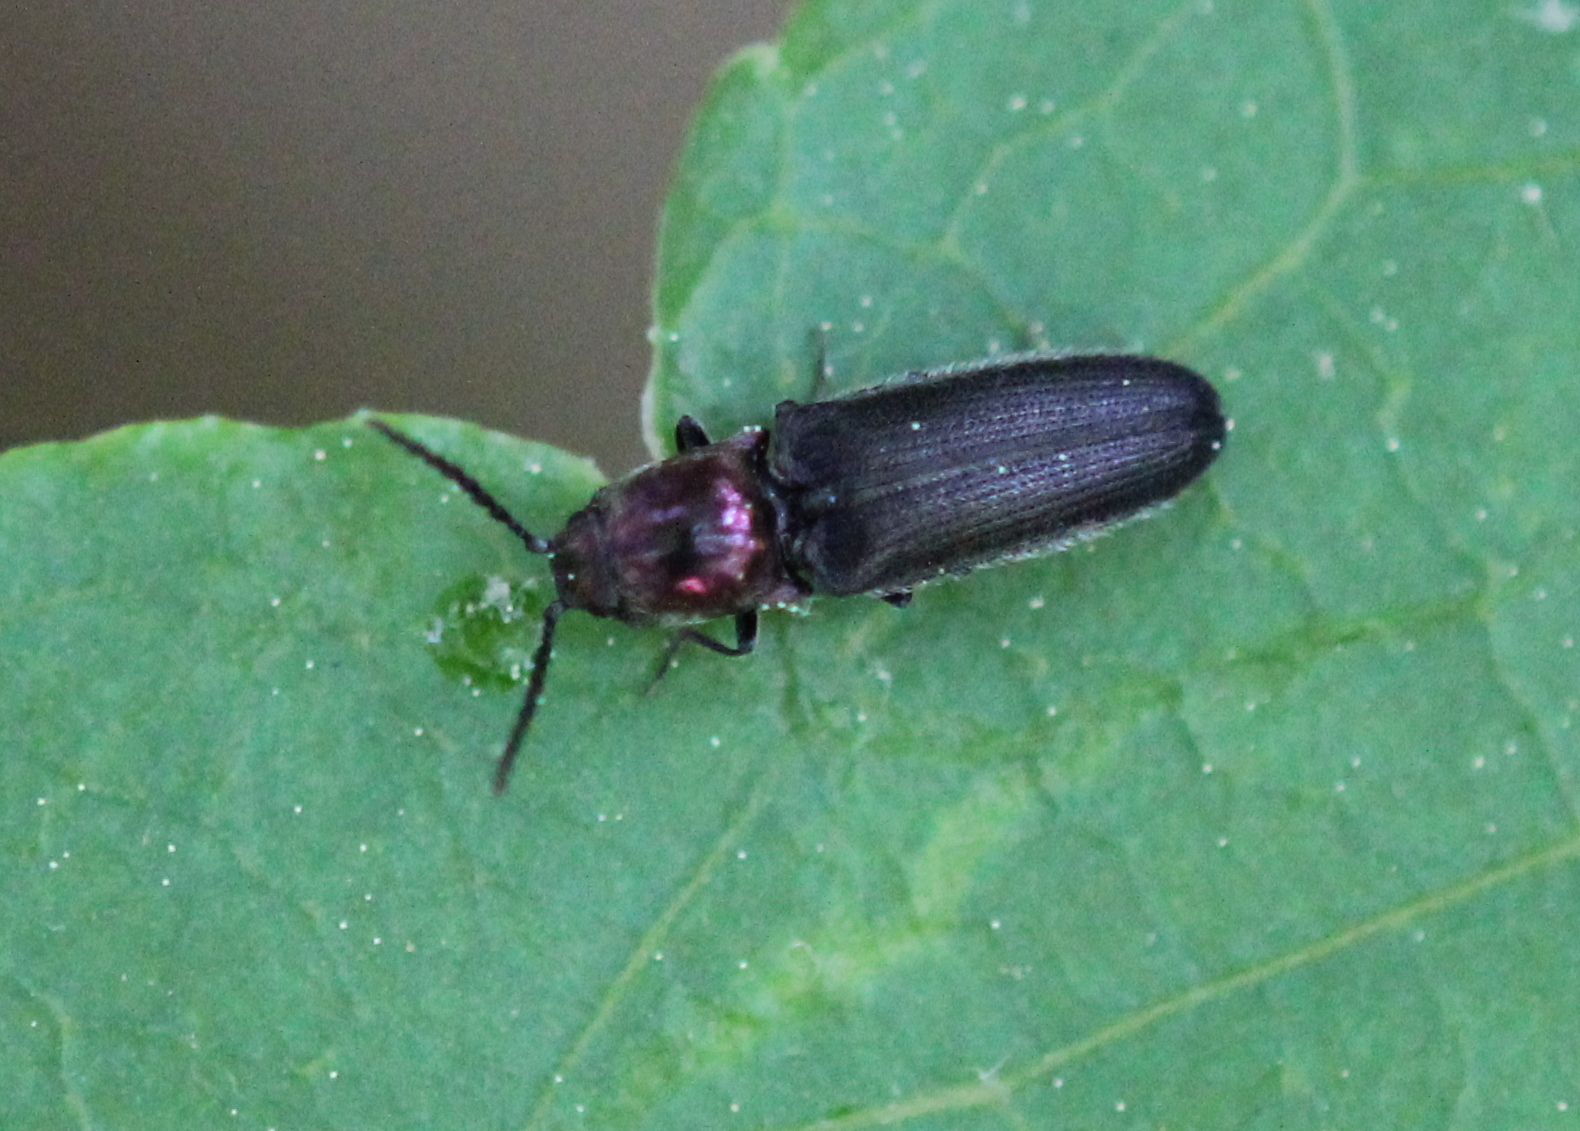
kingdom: Animalia
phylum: Arthropoda
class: Insecta
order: Coleoptera
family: Elateridae
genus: Limonius
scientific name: Limonius aurifer
